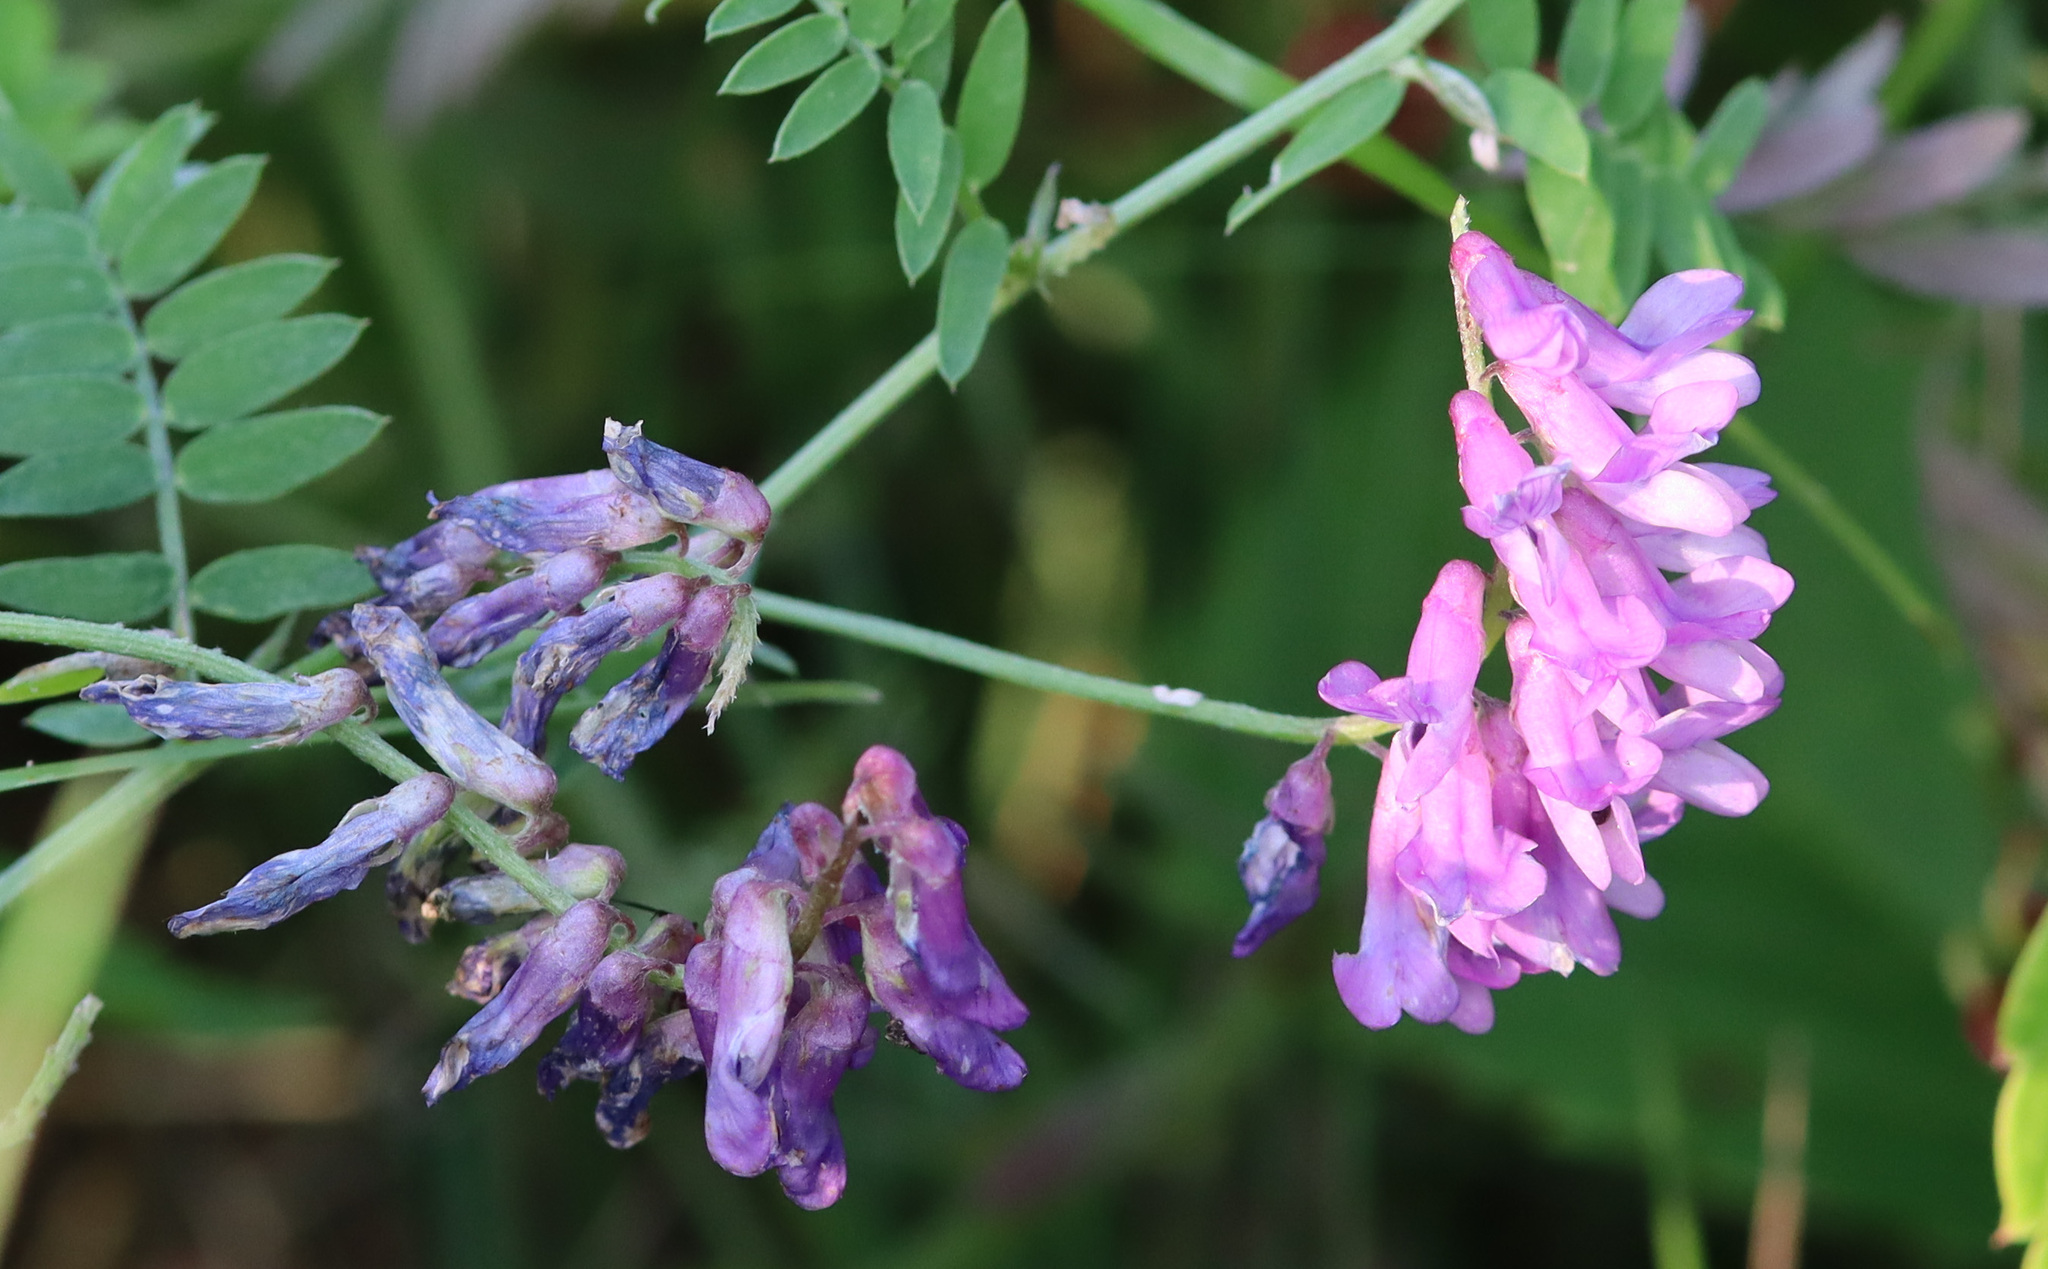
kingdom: Plantae
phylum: Tracheophyta
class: Magnoliopsida
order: Fabales
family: Fabaceae
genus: Vicia
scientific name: Vicia cracca
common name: Bird vetch
